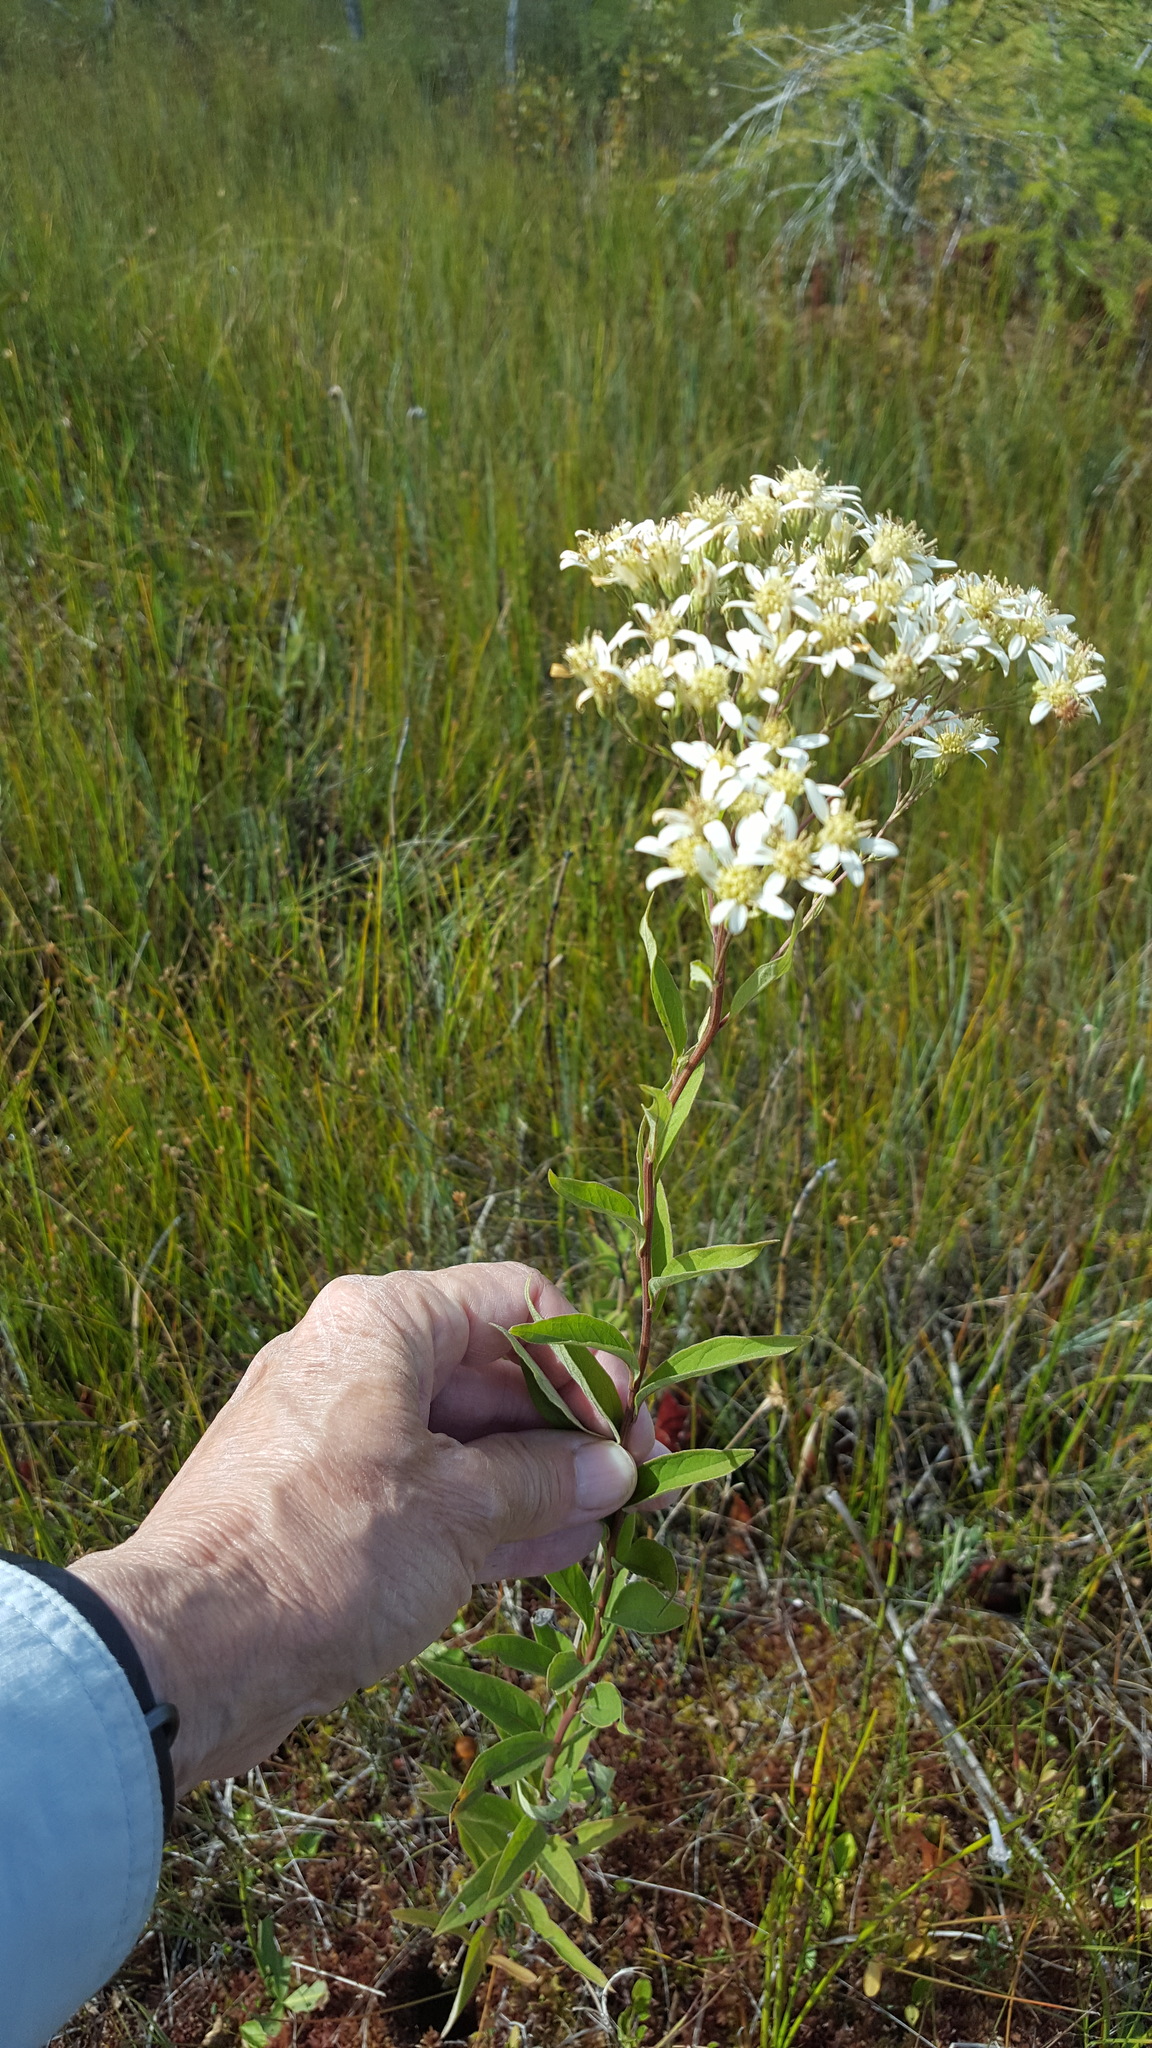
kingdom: Plantae
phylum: Tracheophyta
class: Magnoliopsida
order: Asterales
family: Asteraceae
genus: Doellingeria
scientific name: Doellingeria umbellata
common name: Flat-top white aster
